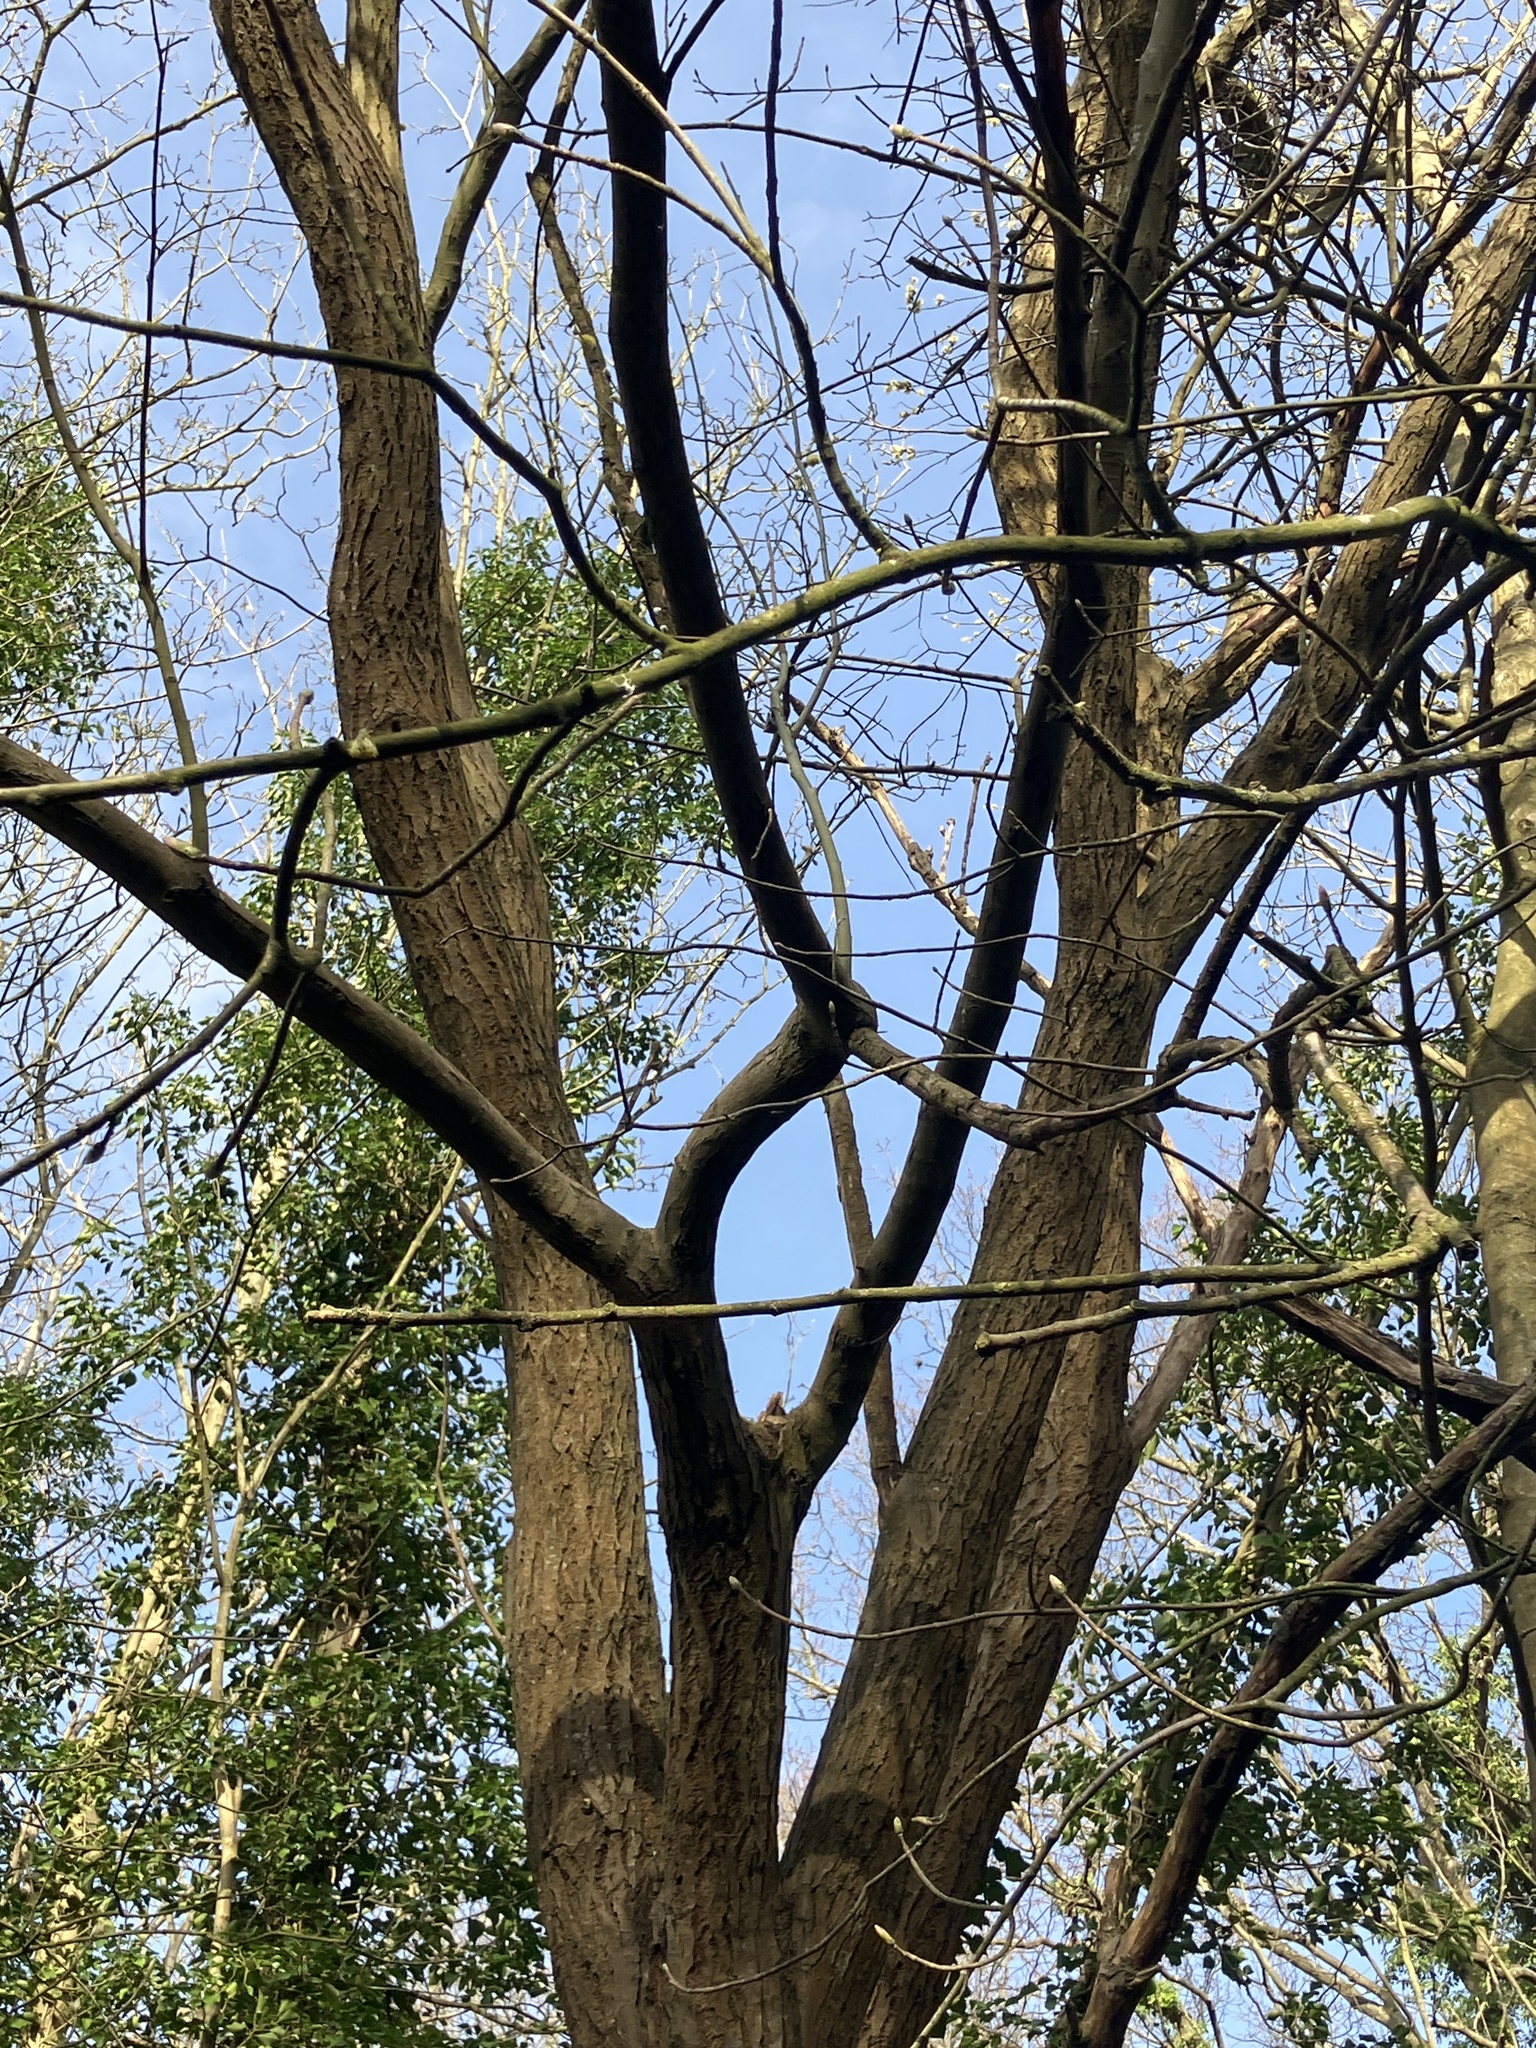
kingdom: Plantae
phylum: Tracheophyta
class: Magnoliopsida
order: Malpighiales
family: Salicaceae
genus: Salix
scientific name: Salix caprea
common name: Goat willow
